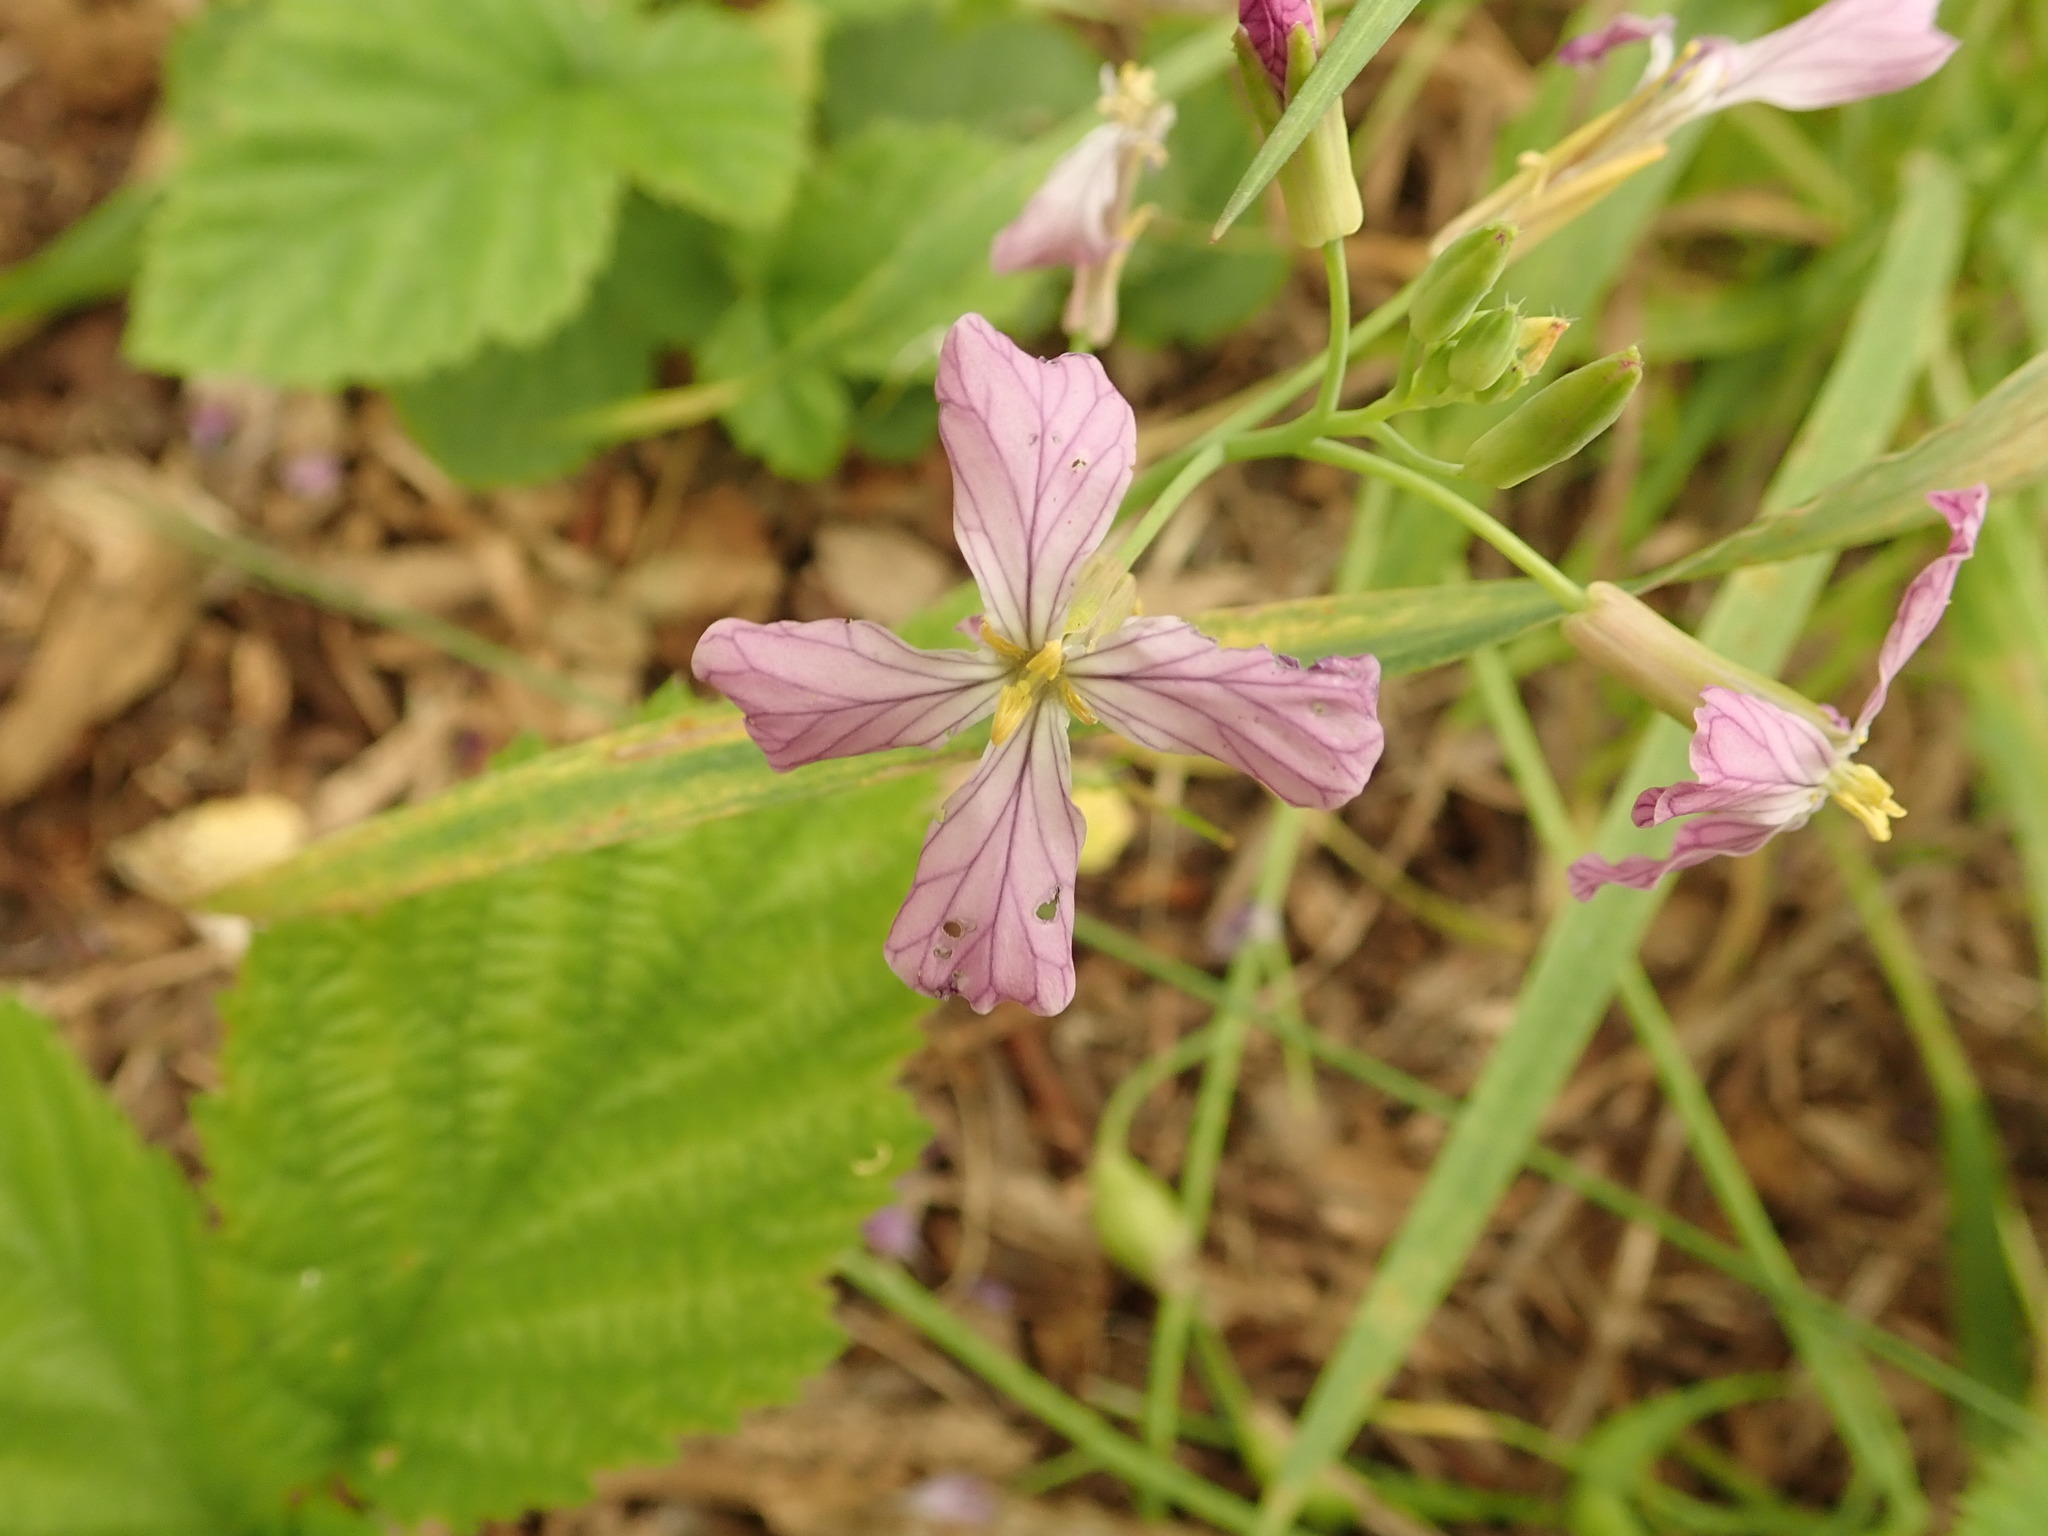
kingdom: Plantae
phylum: Tracheophyta
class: Magnoliopsida
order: Brassicales
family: Brassicaceae
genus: Raphanus
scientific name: Raphanus sativus
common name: Cultivated radish
